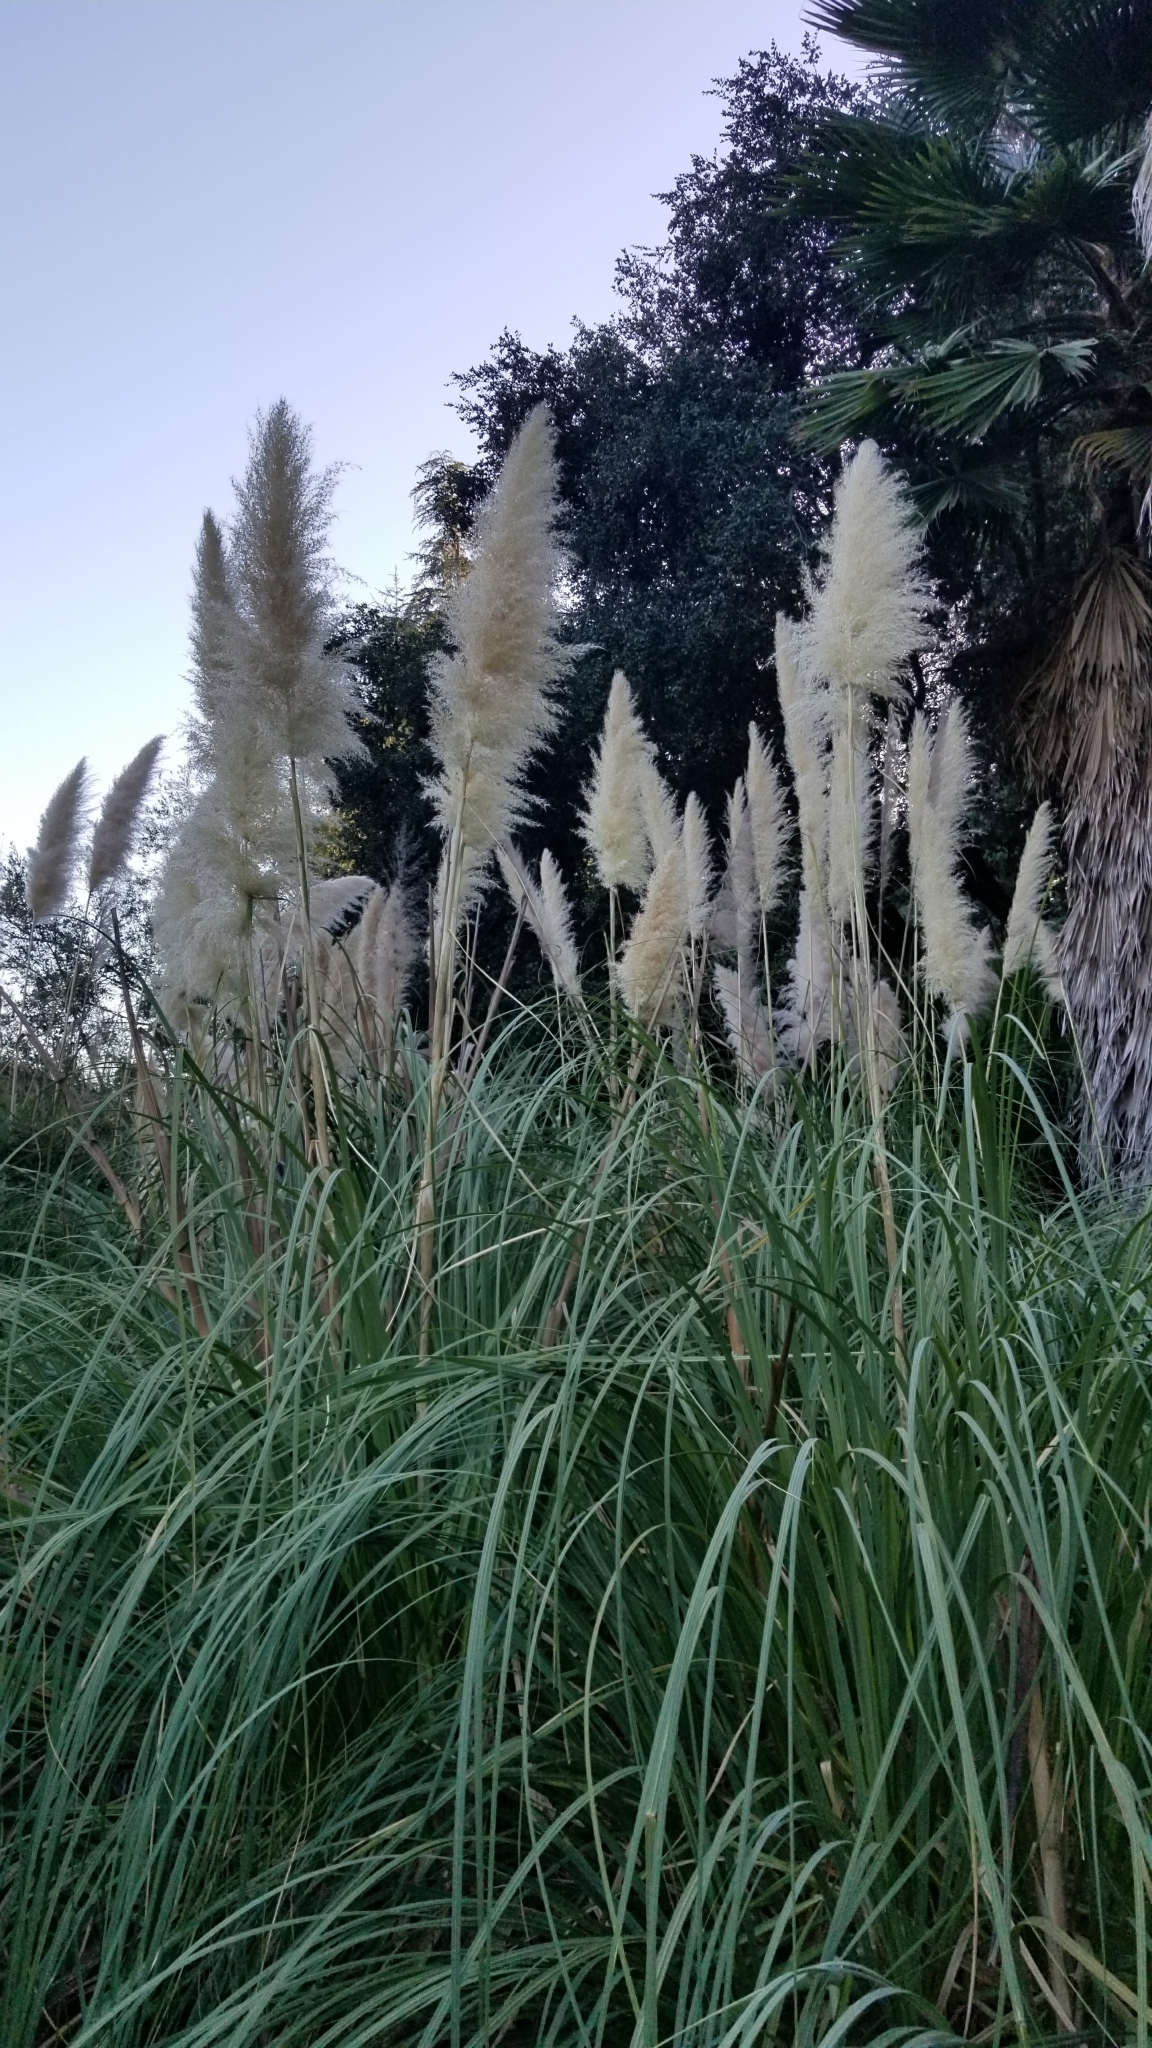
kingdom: Plantae
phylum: Tracheophyta
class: Liliopsida
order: Poales
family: Poaceae
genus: Cortaderia
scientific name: Cortaderia selloana
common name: Uruguayan pampas grass
